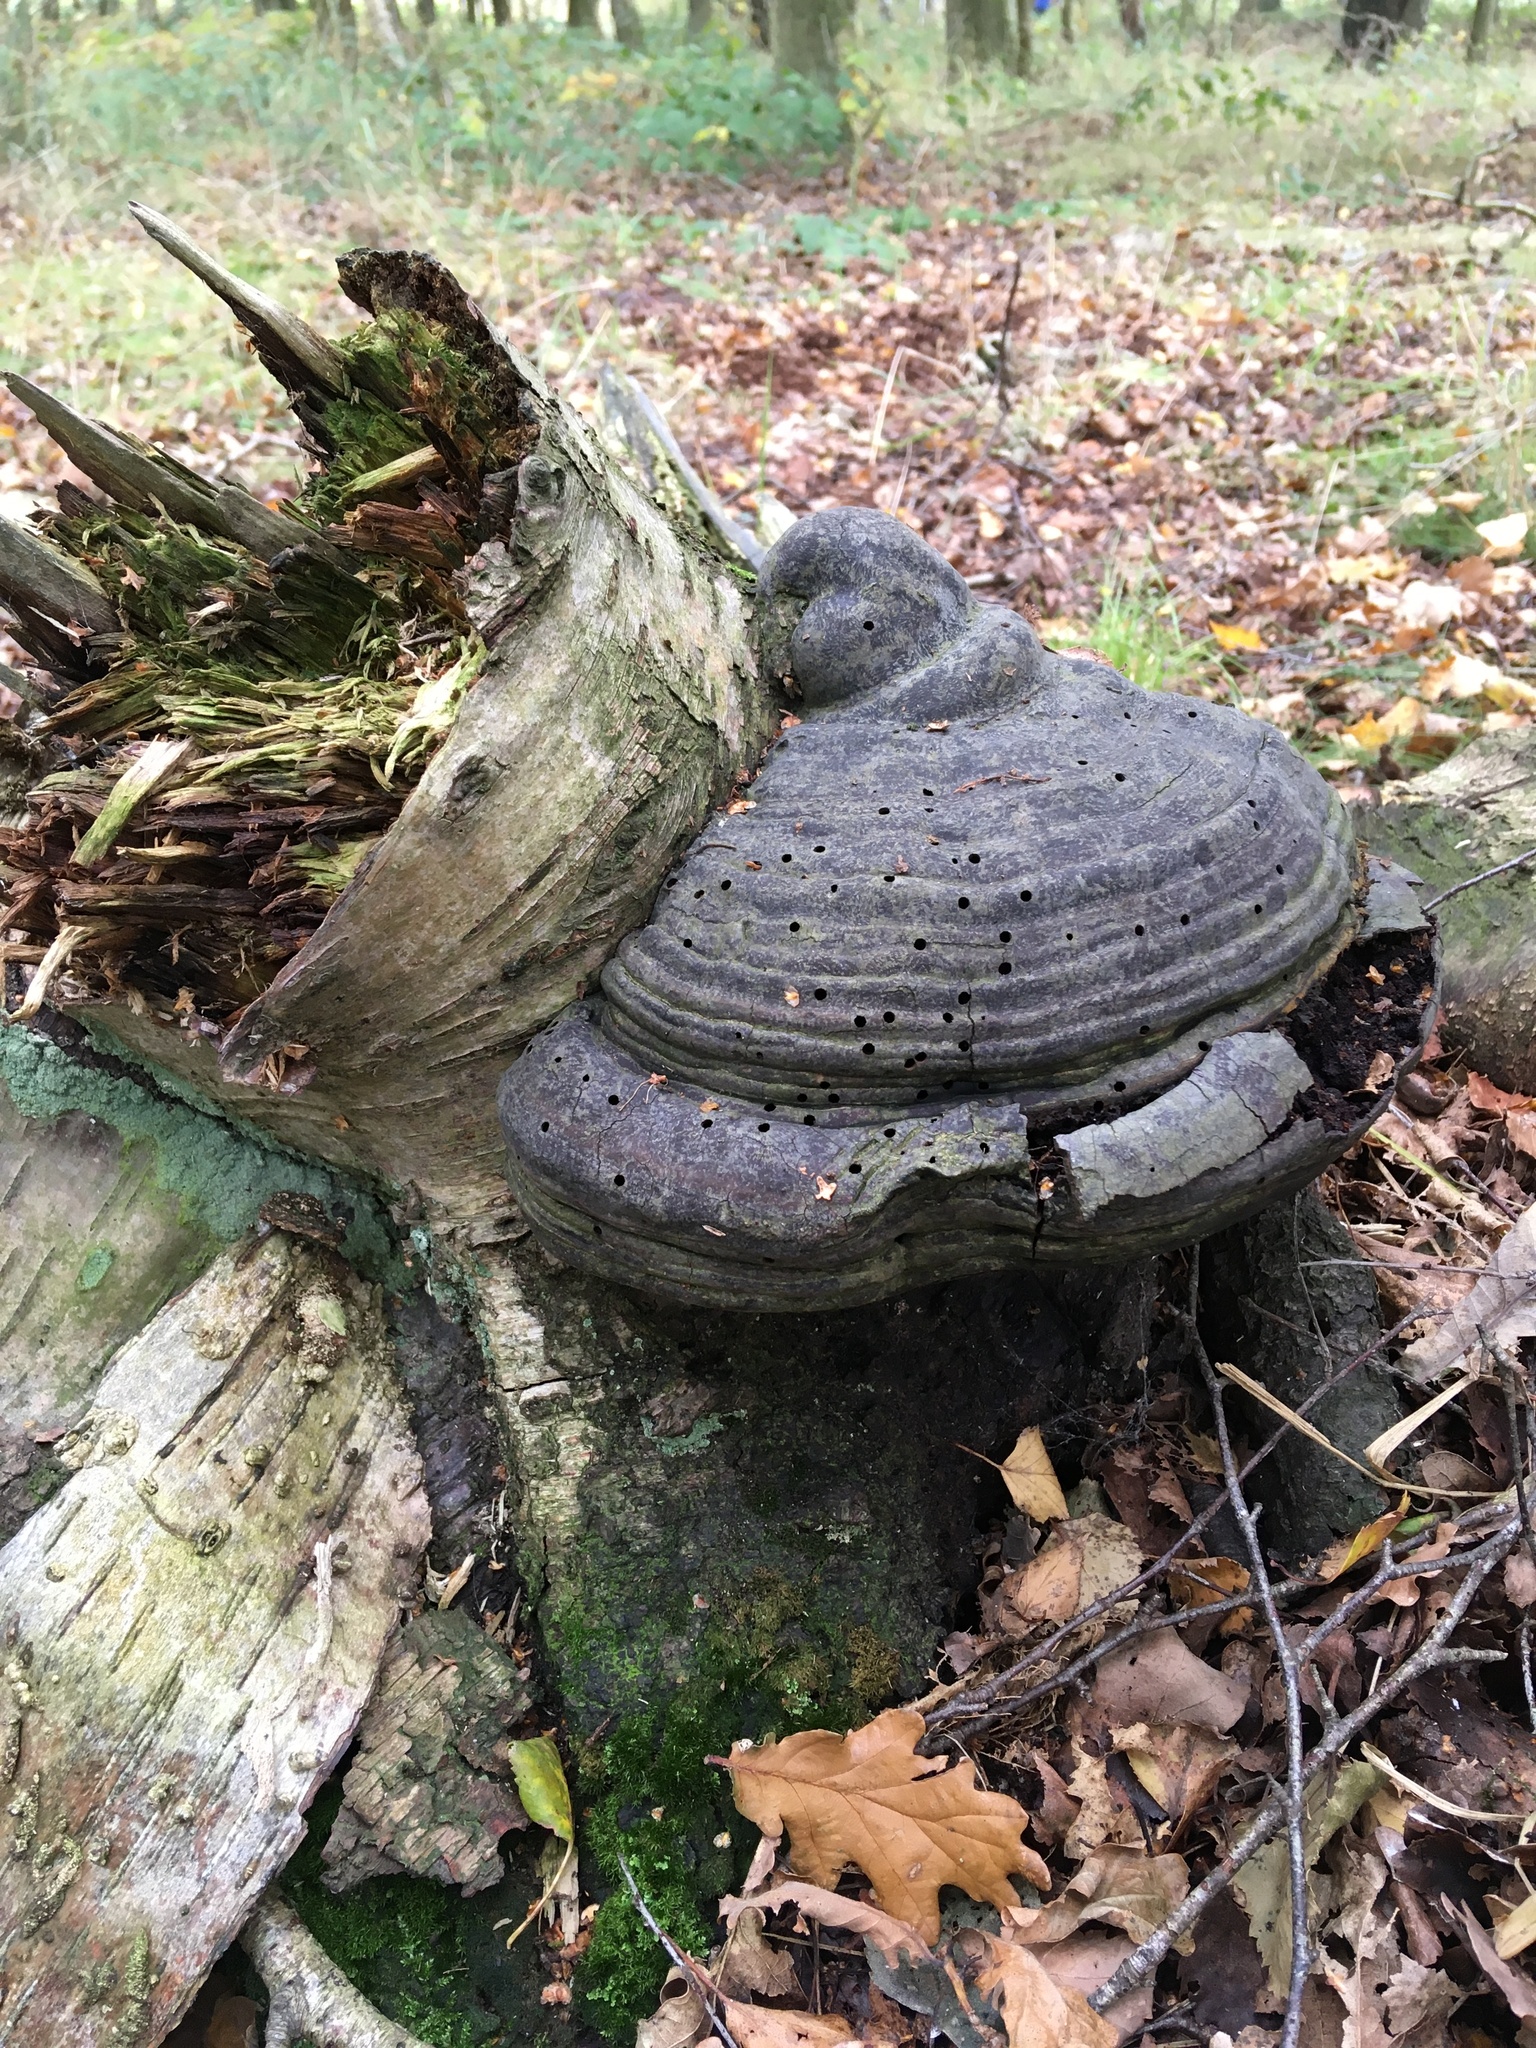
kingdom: Fungi
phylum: Basidiomycota
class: Agaricomycetes
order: Polyporales
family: Polyporaceae
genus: Fomes
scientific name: Fomes fomentarius
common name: Hoof fungus
